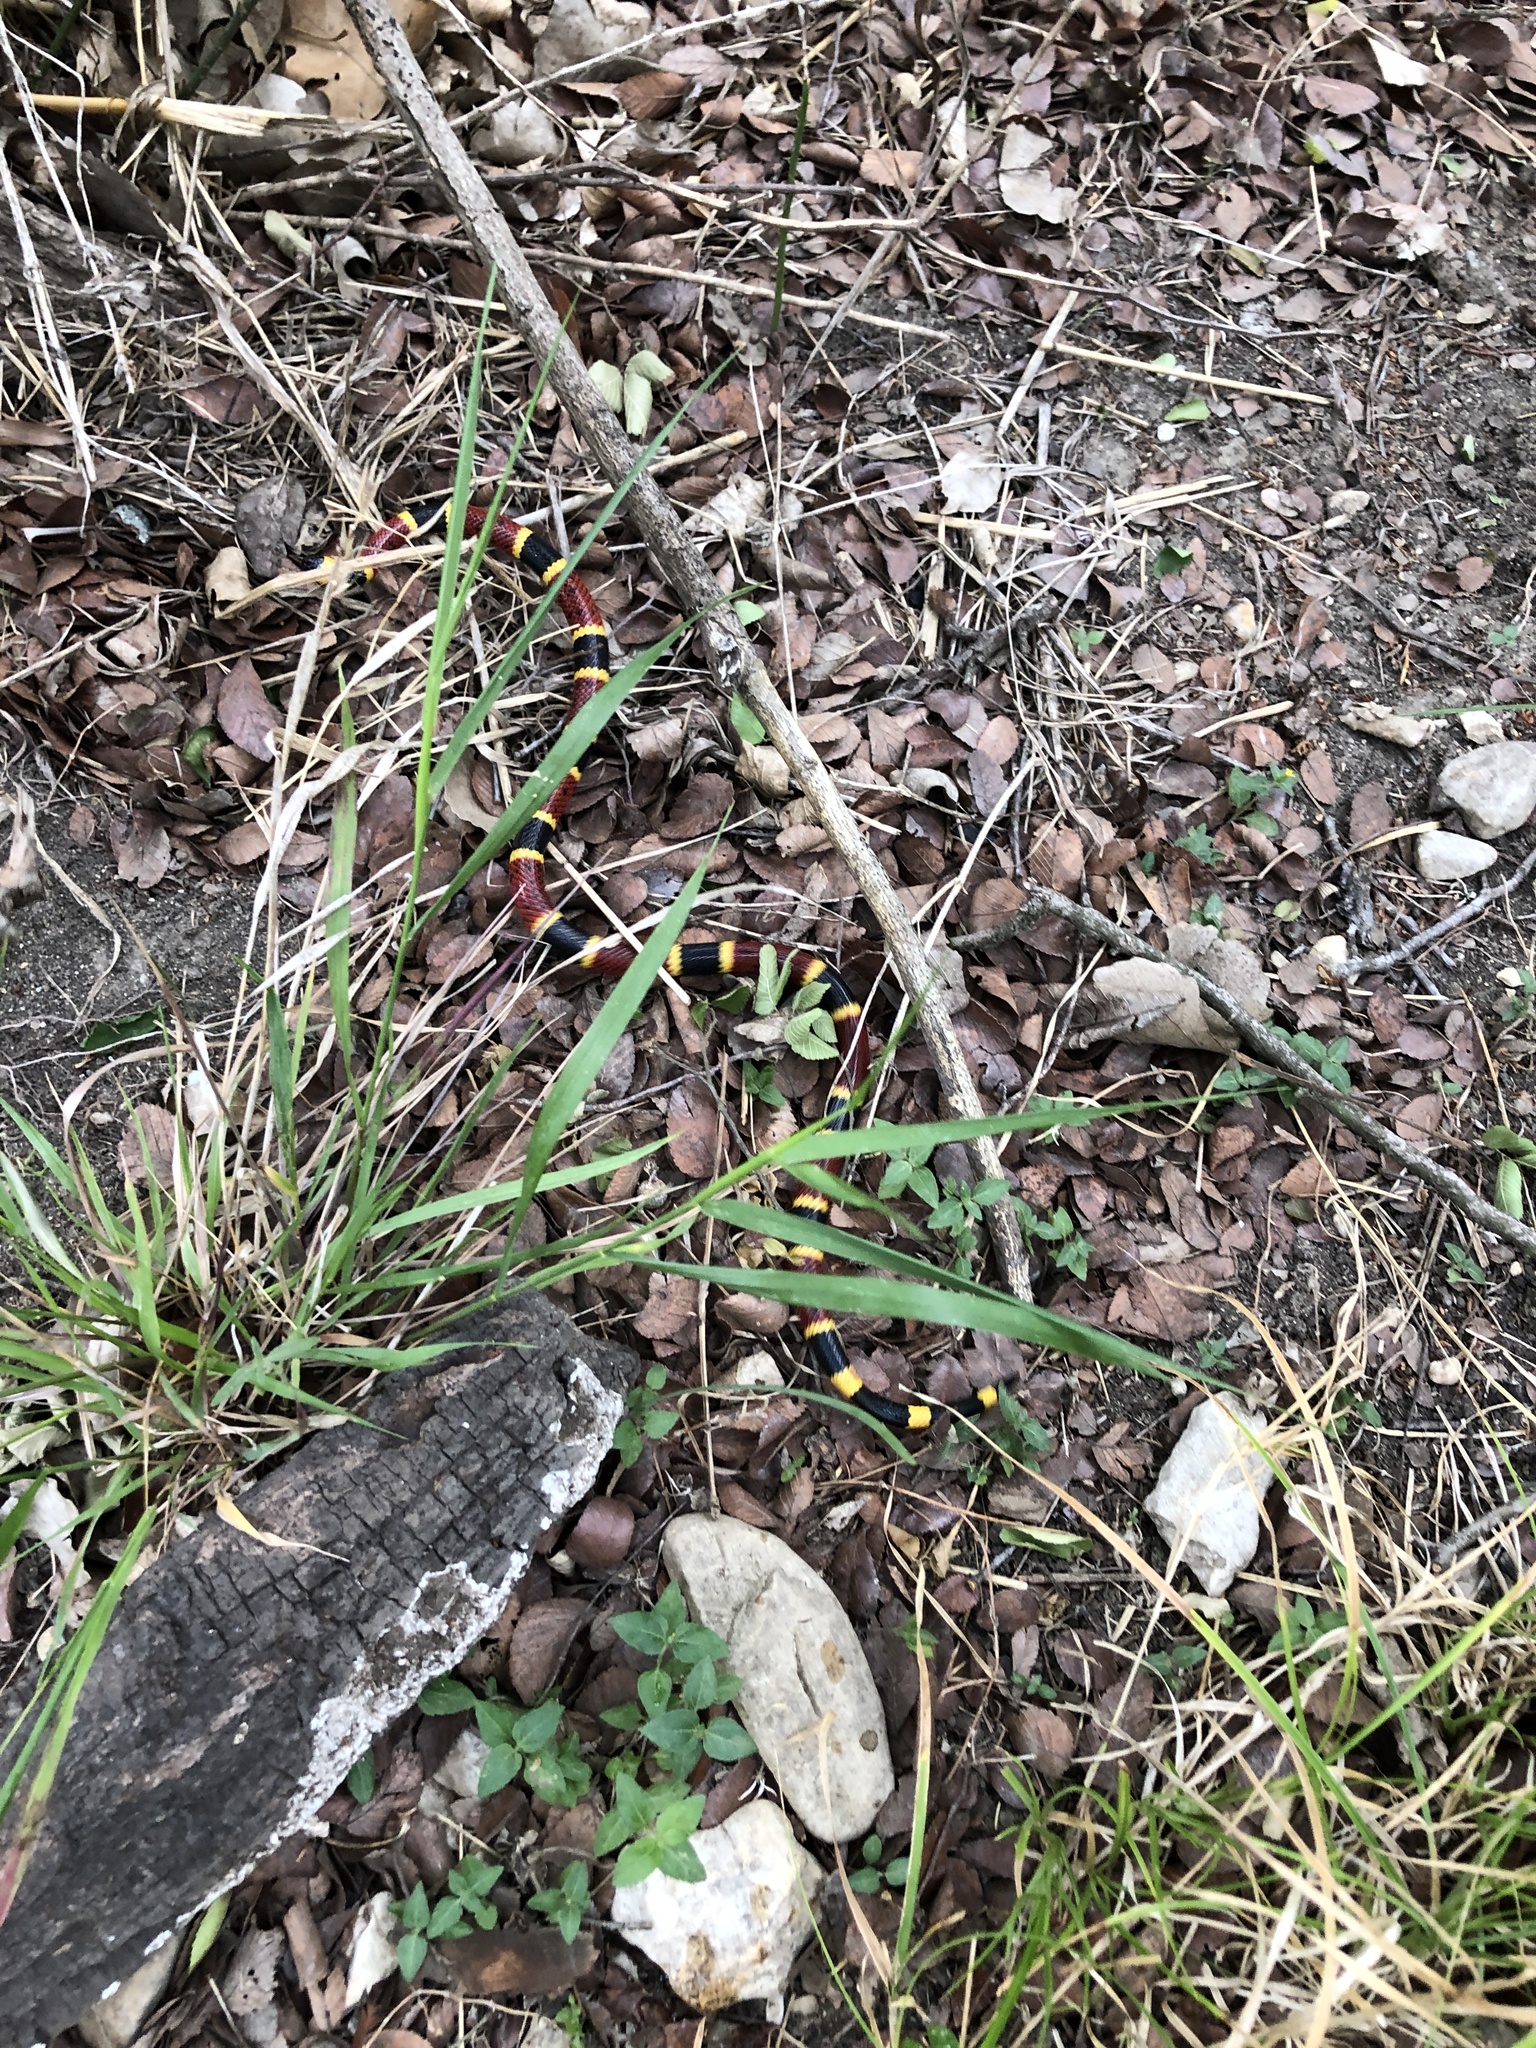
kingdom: Animalia
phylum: Chordata
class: Squamata
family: Elapidae
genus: Micrurus
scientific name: Micrurus tener
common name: Texas coral snake
